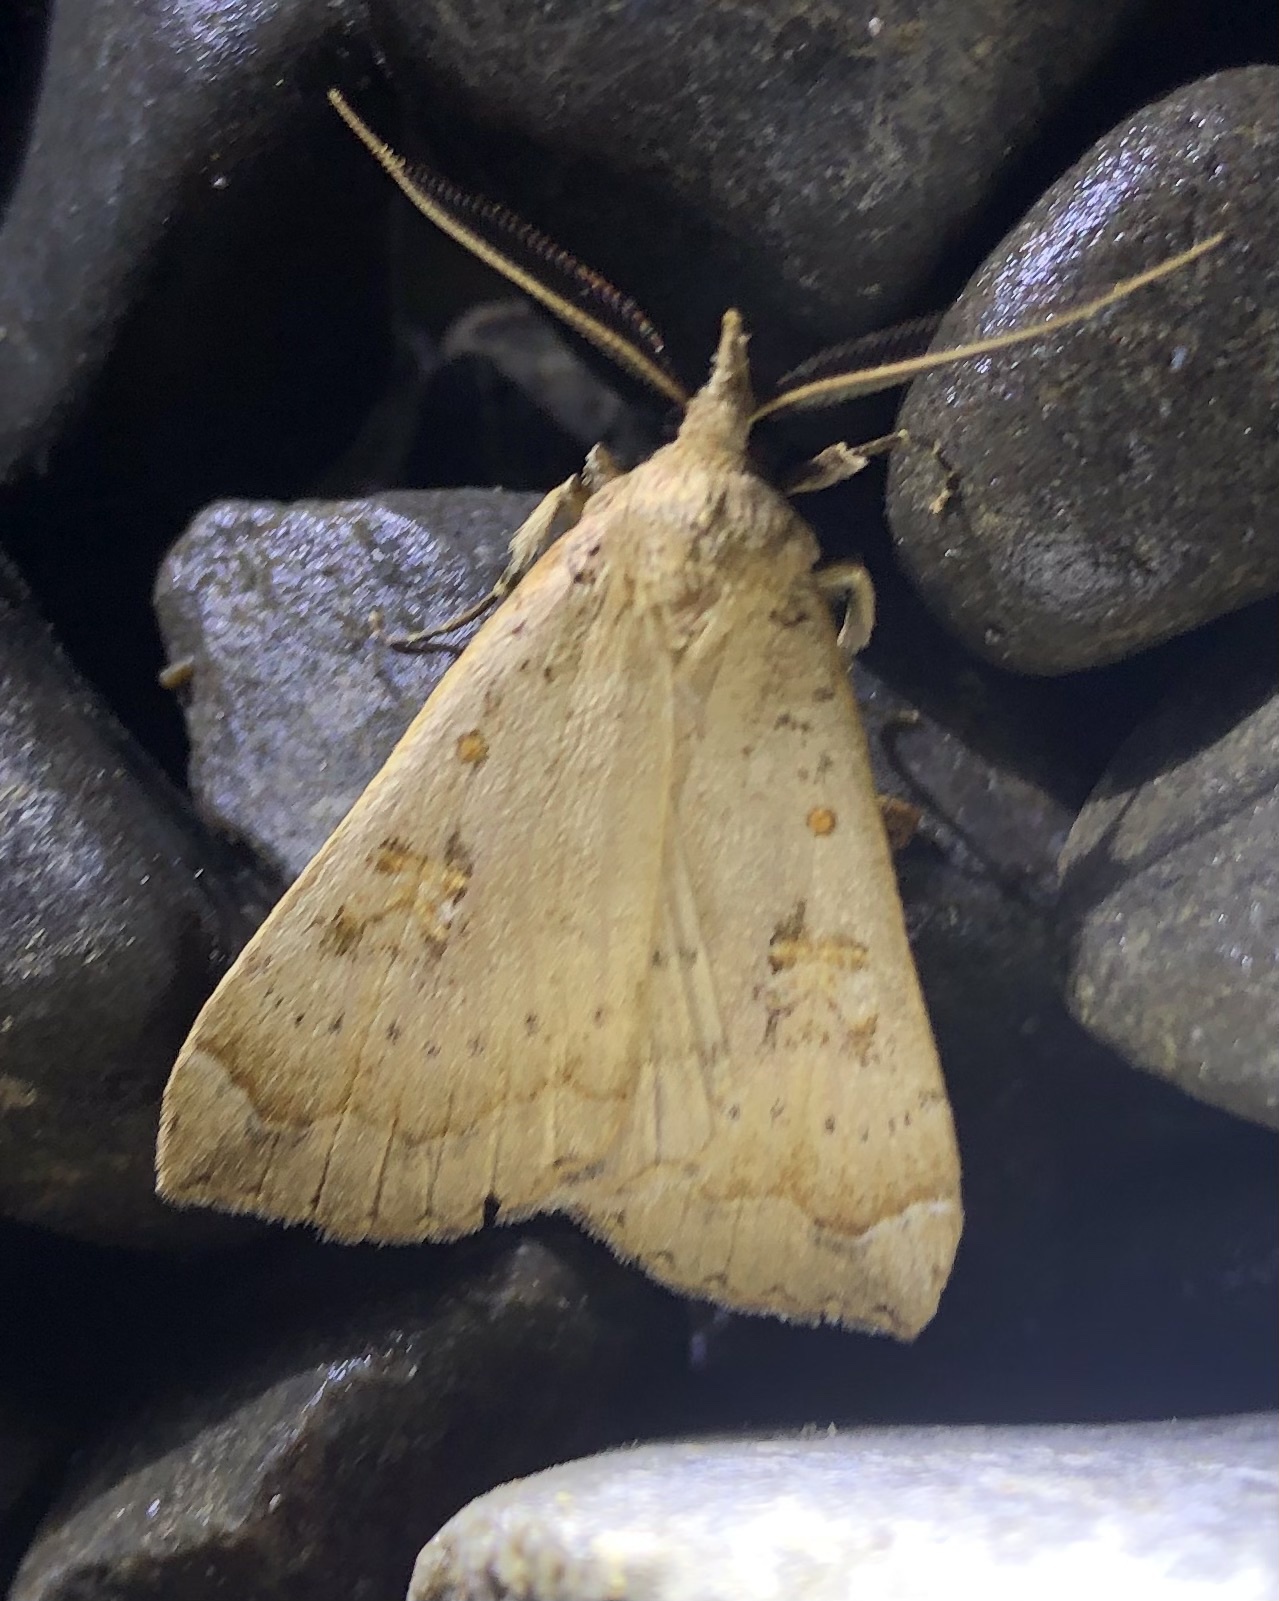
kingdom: Animalia
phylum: Arthropoda
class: Insecta
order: Lepidoptera
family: Erebidae
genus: Rhapsa
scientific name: Rhapsa scotosialis
